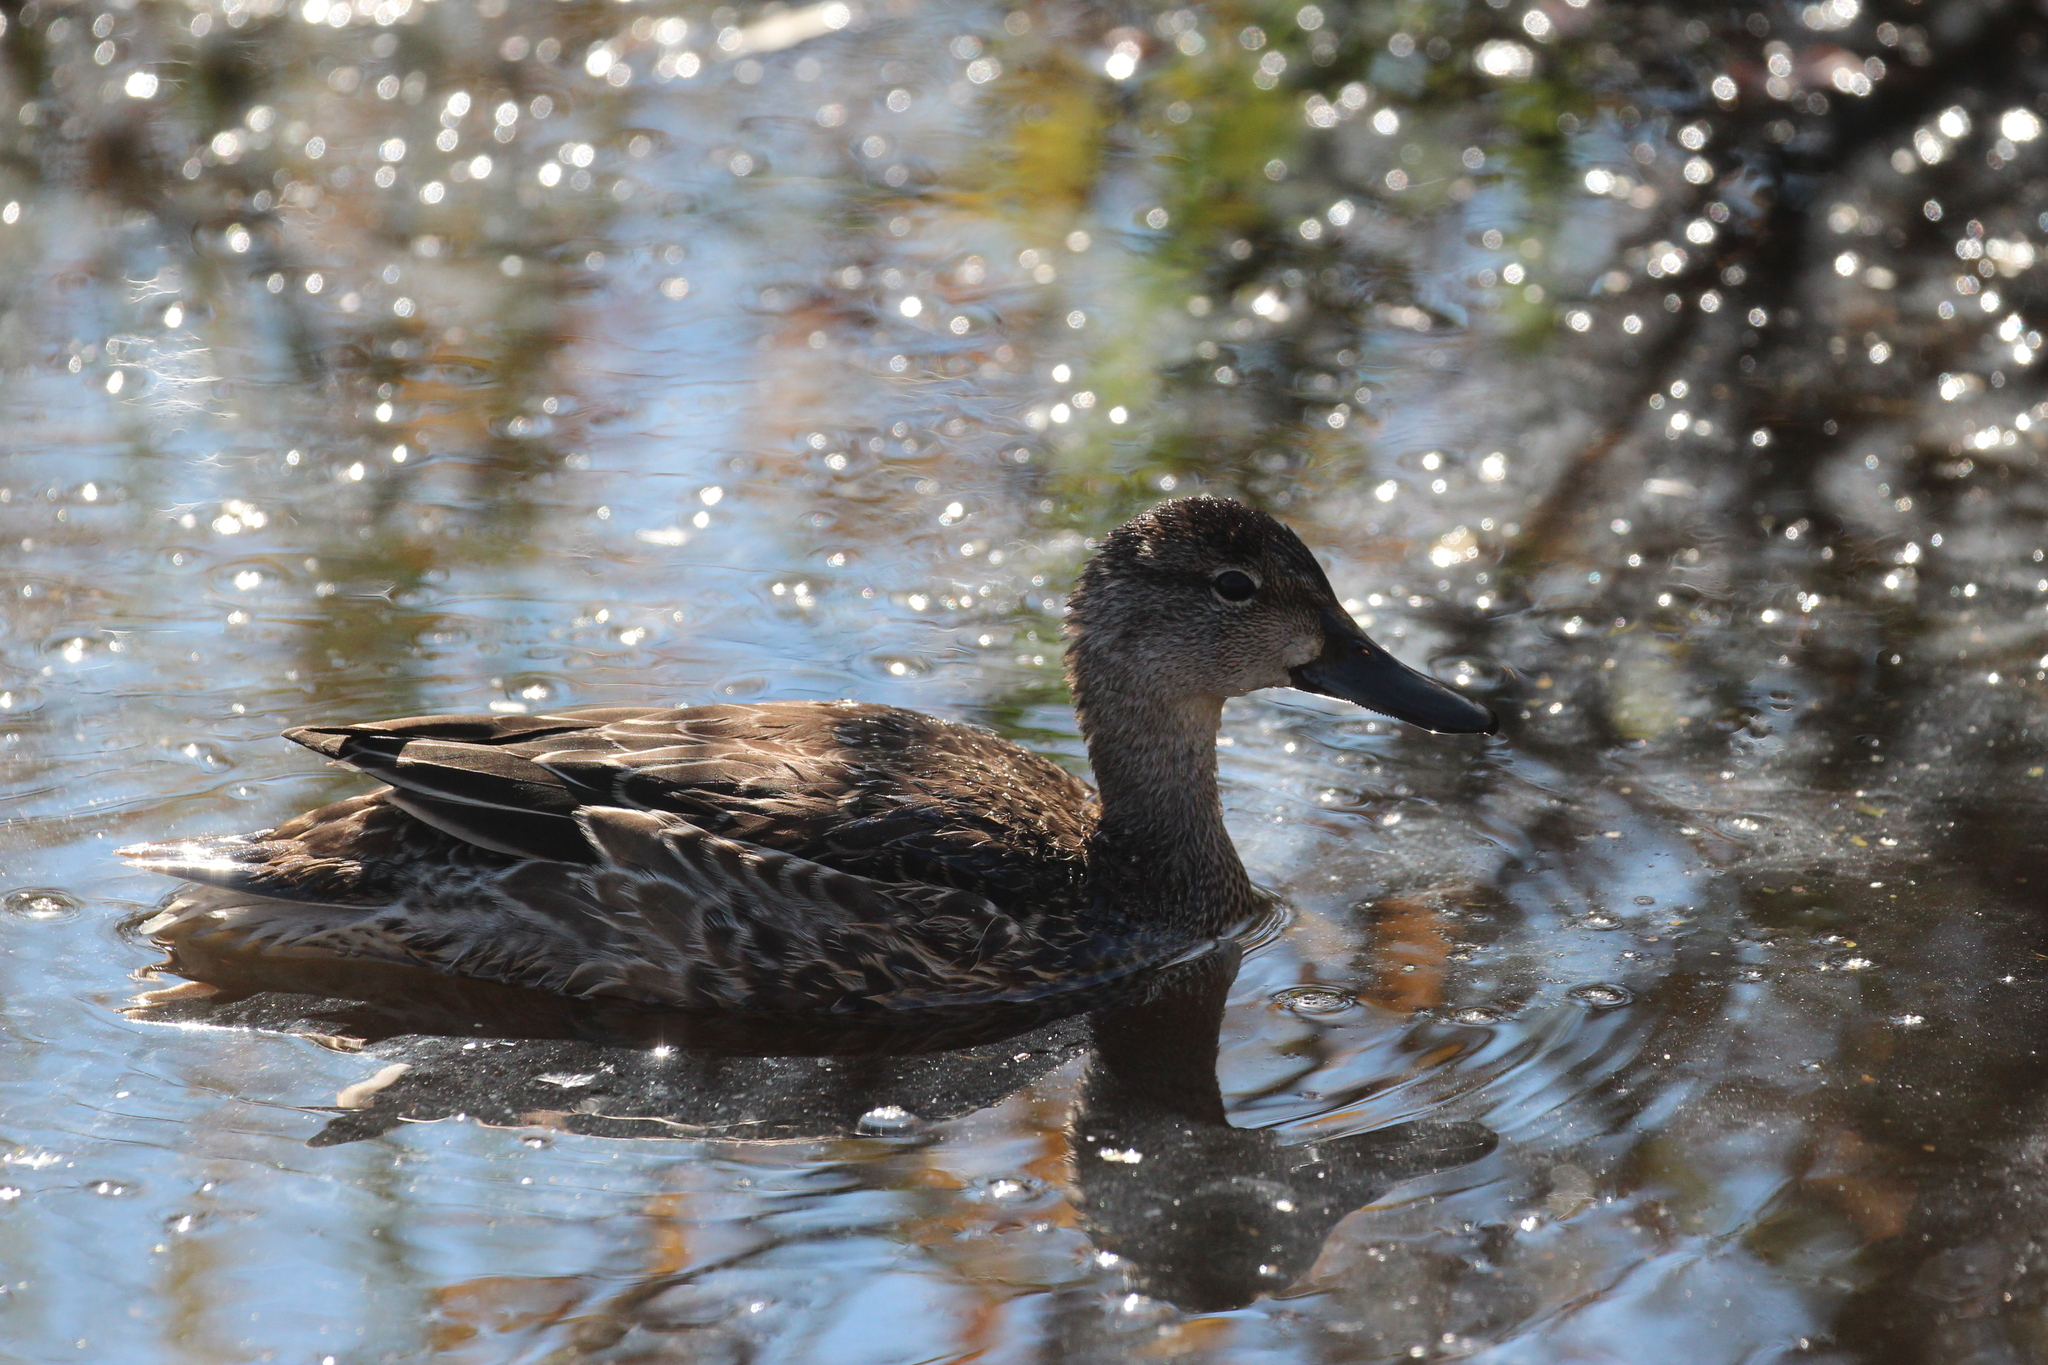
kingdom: Animalia
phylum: Chordata
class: Aves
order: Anseriformes
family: Anatidae
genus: Spatula
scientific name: Spatula discors
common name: Blue-winged teal
